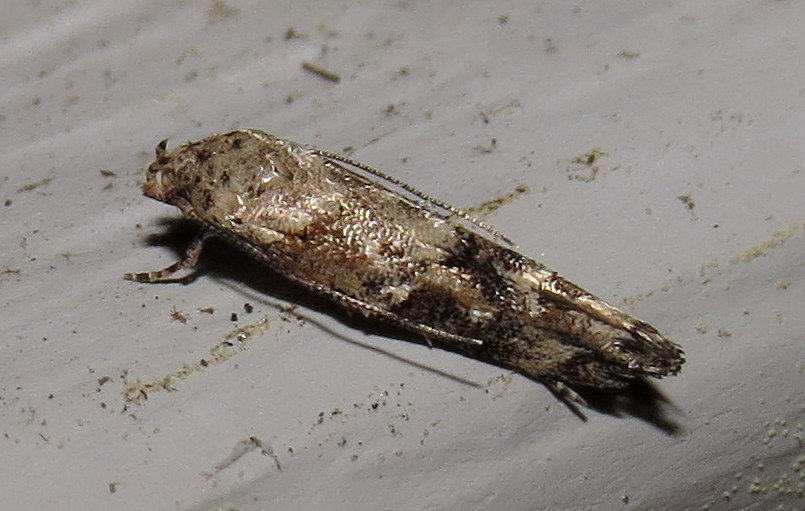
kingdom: Animalia
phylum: Arthropoda
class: Insecta
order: Lepidoptera
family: Momphidae
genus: Mompha
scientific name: Mompha stellella
